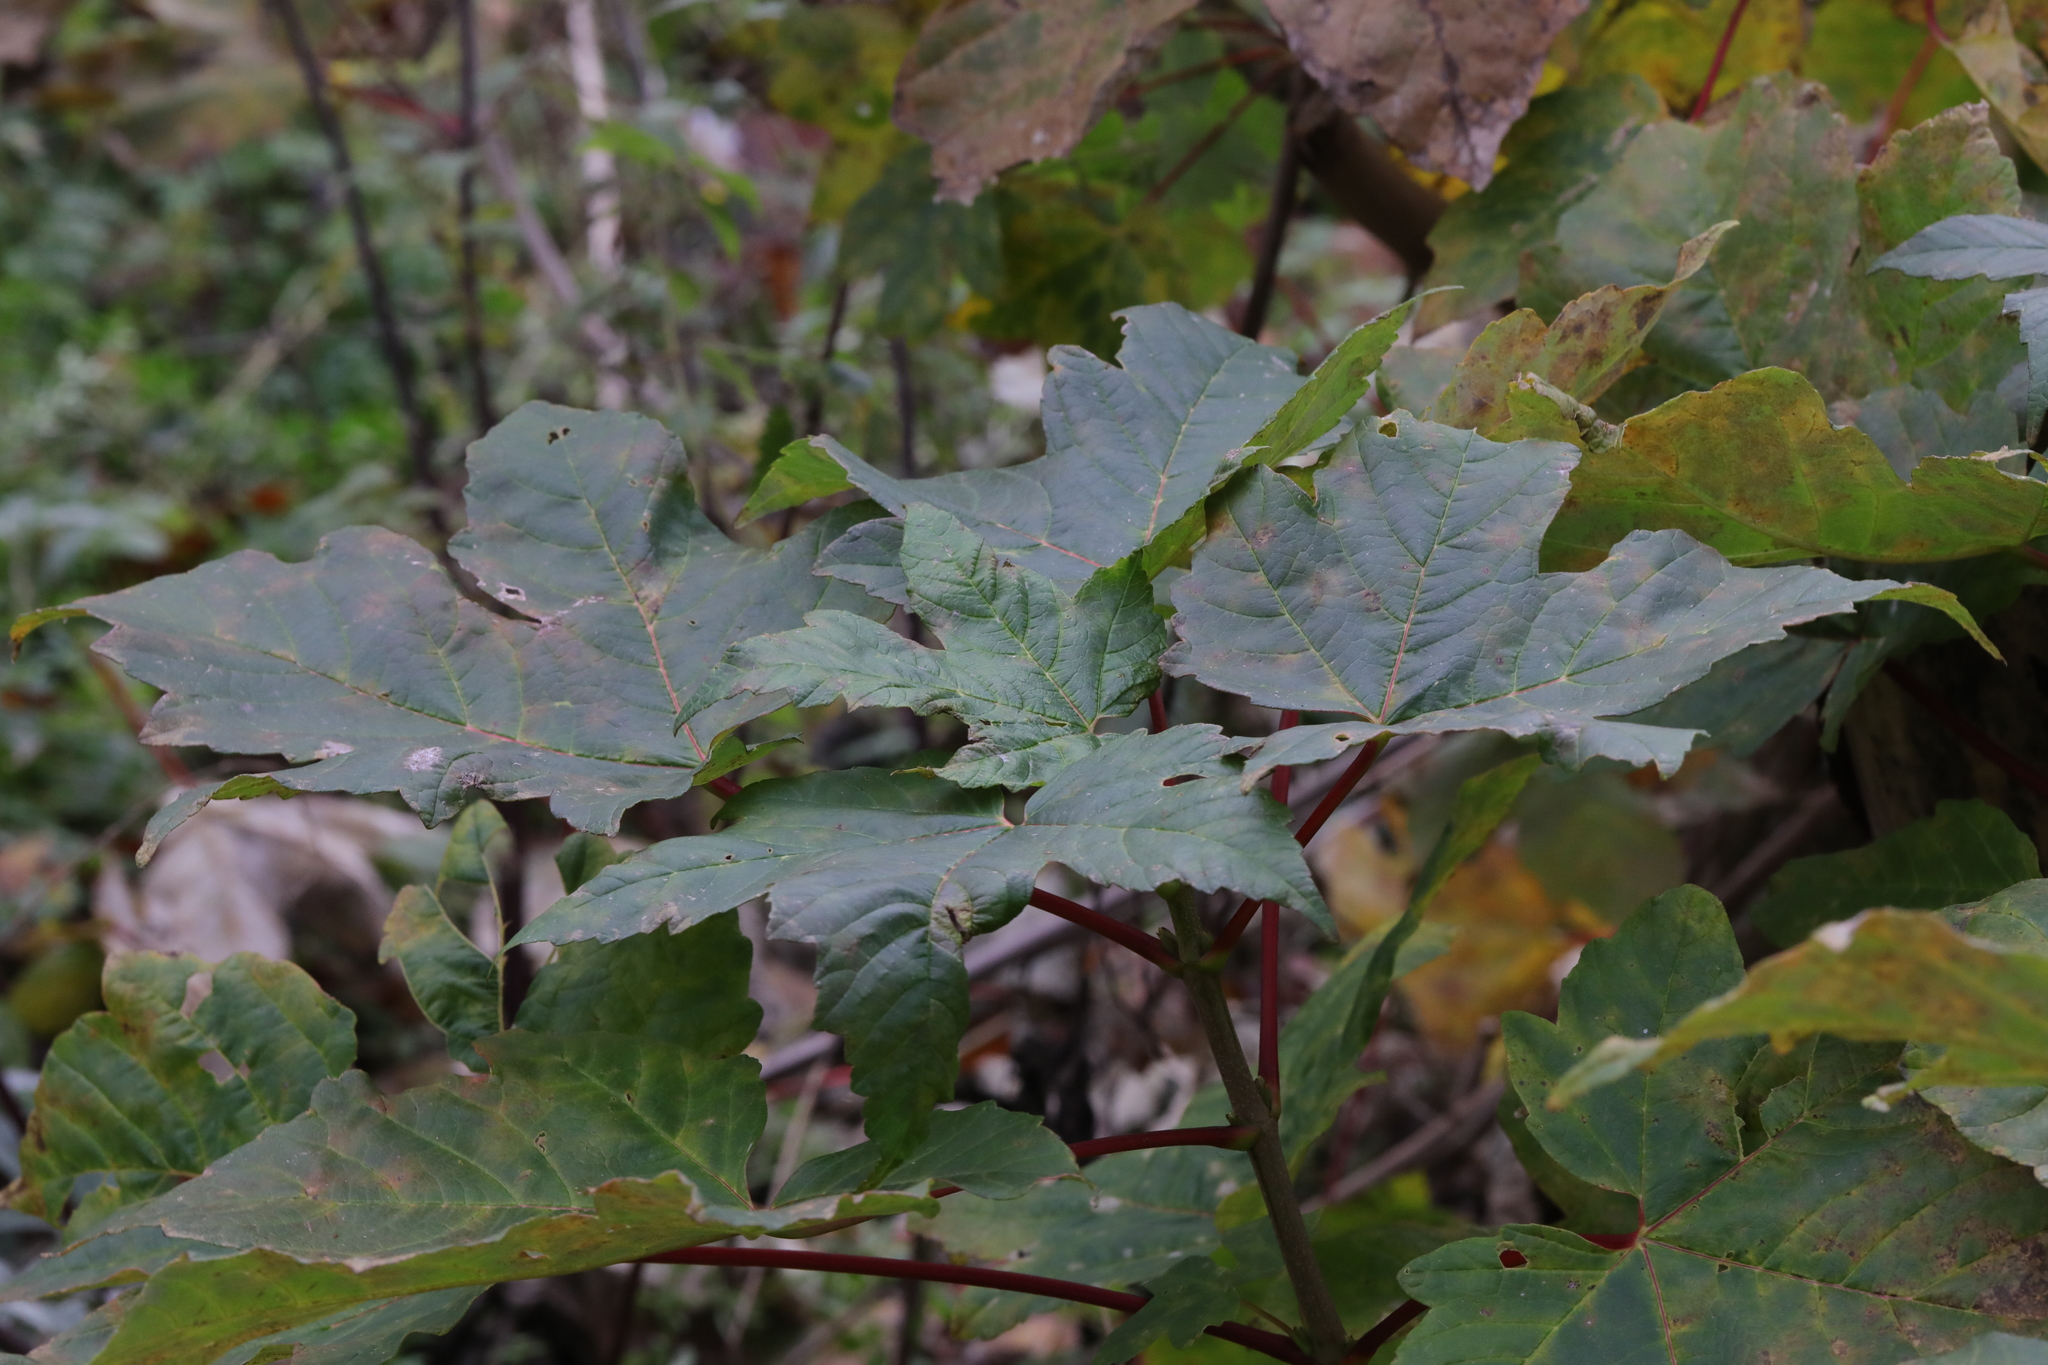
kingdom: Plantae
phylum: Tracheophyta
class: Magnoliopsida
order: Sapindales
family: Sapindaceae
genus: Acer
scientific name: Acer pseudoplatanus
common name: Sycamore
